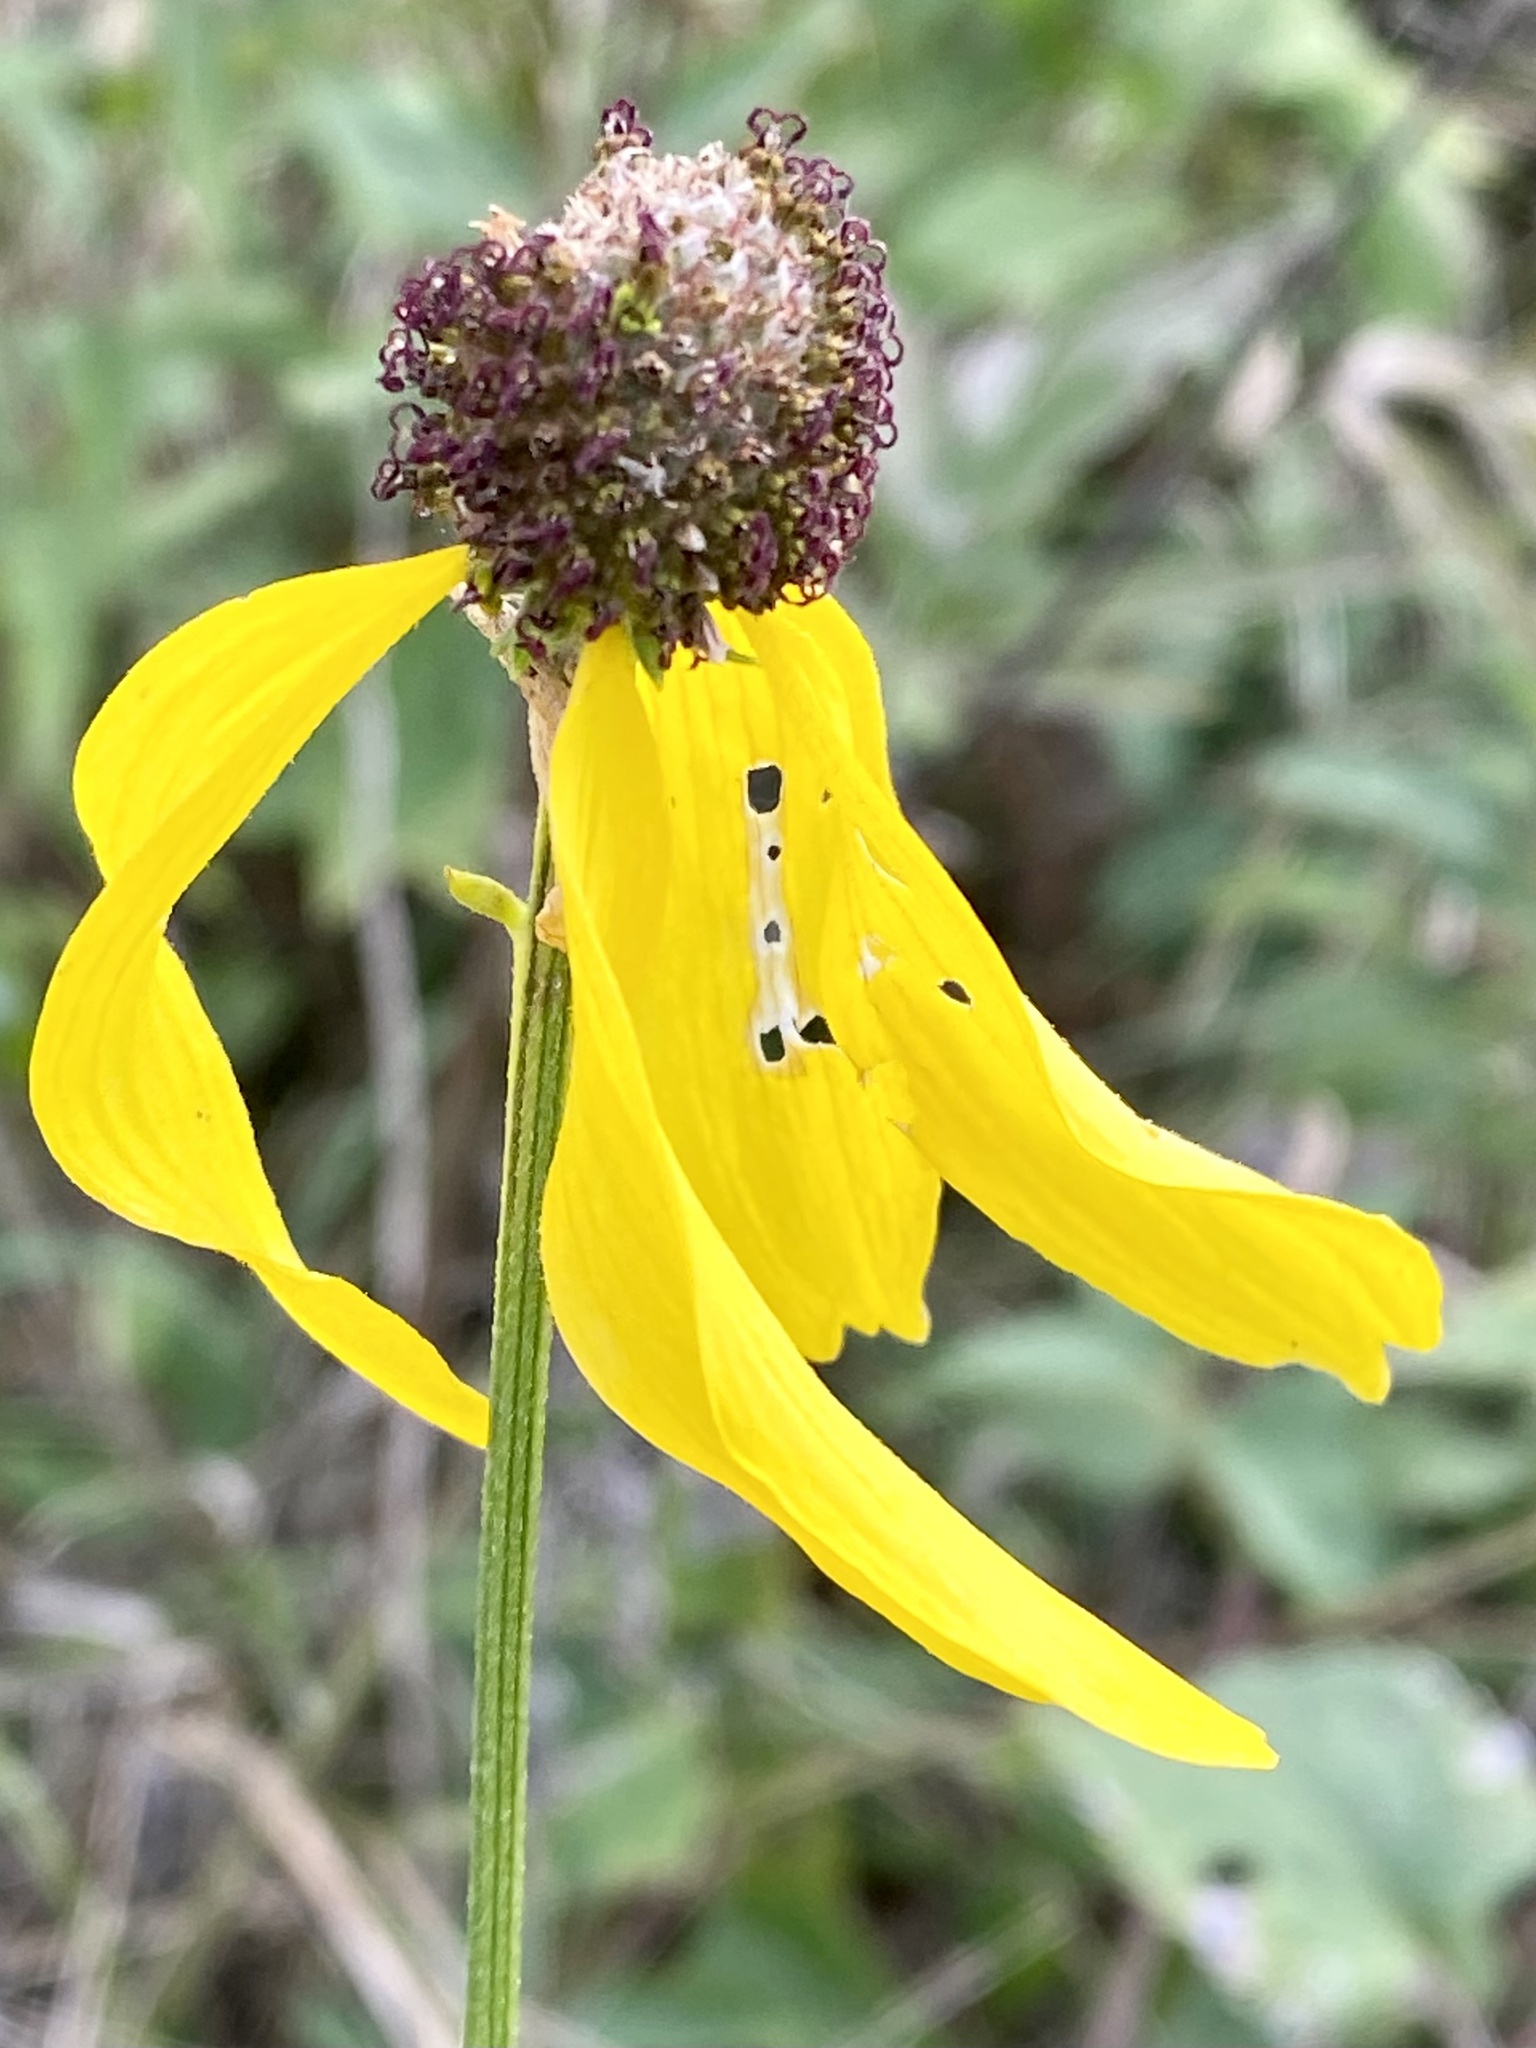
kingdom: Plantae
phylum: Tracheophyta
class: Magnoliopsida
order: Asterales
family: Asteraceae
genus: Ratibida
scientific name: Ratibida pinnata
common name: Drooping prairie-coneflower
